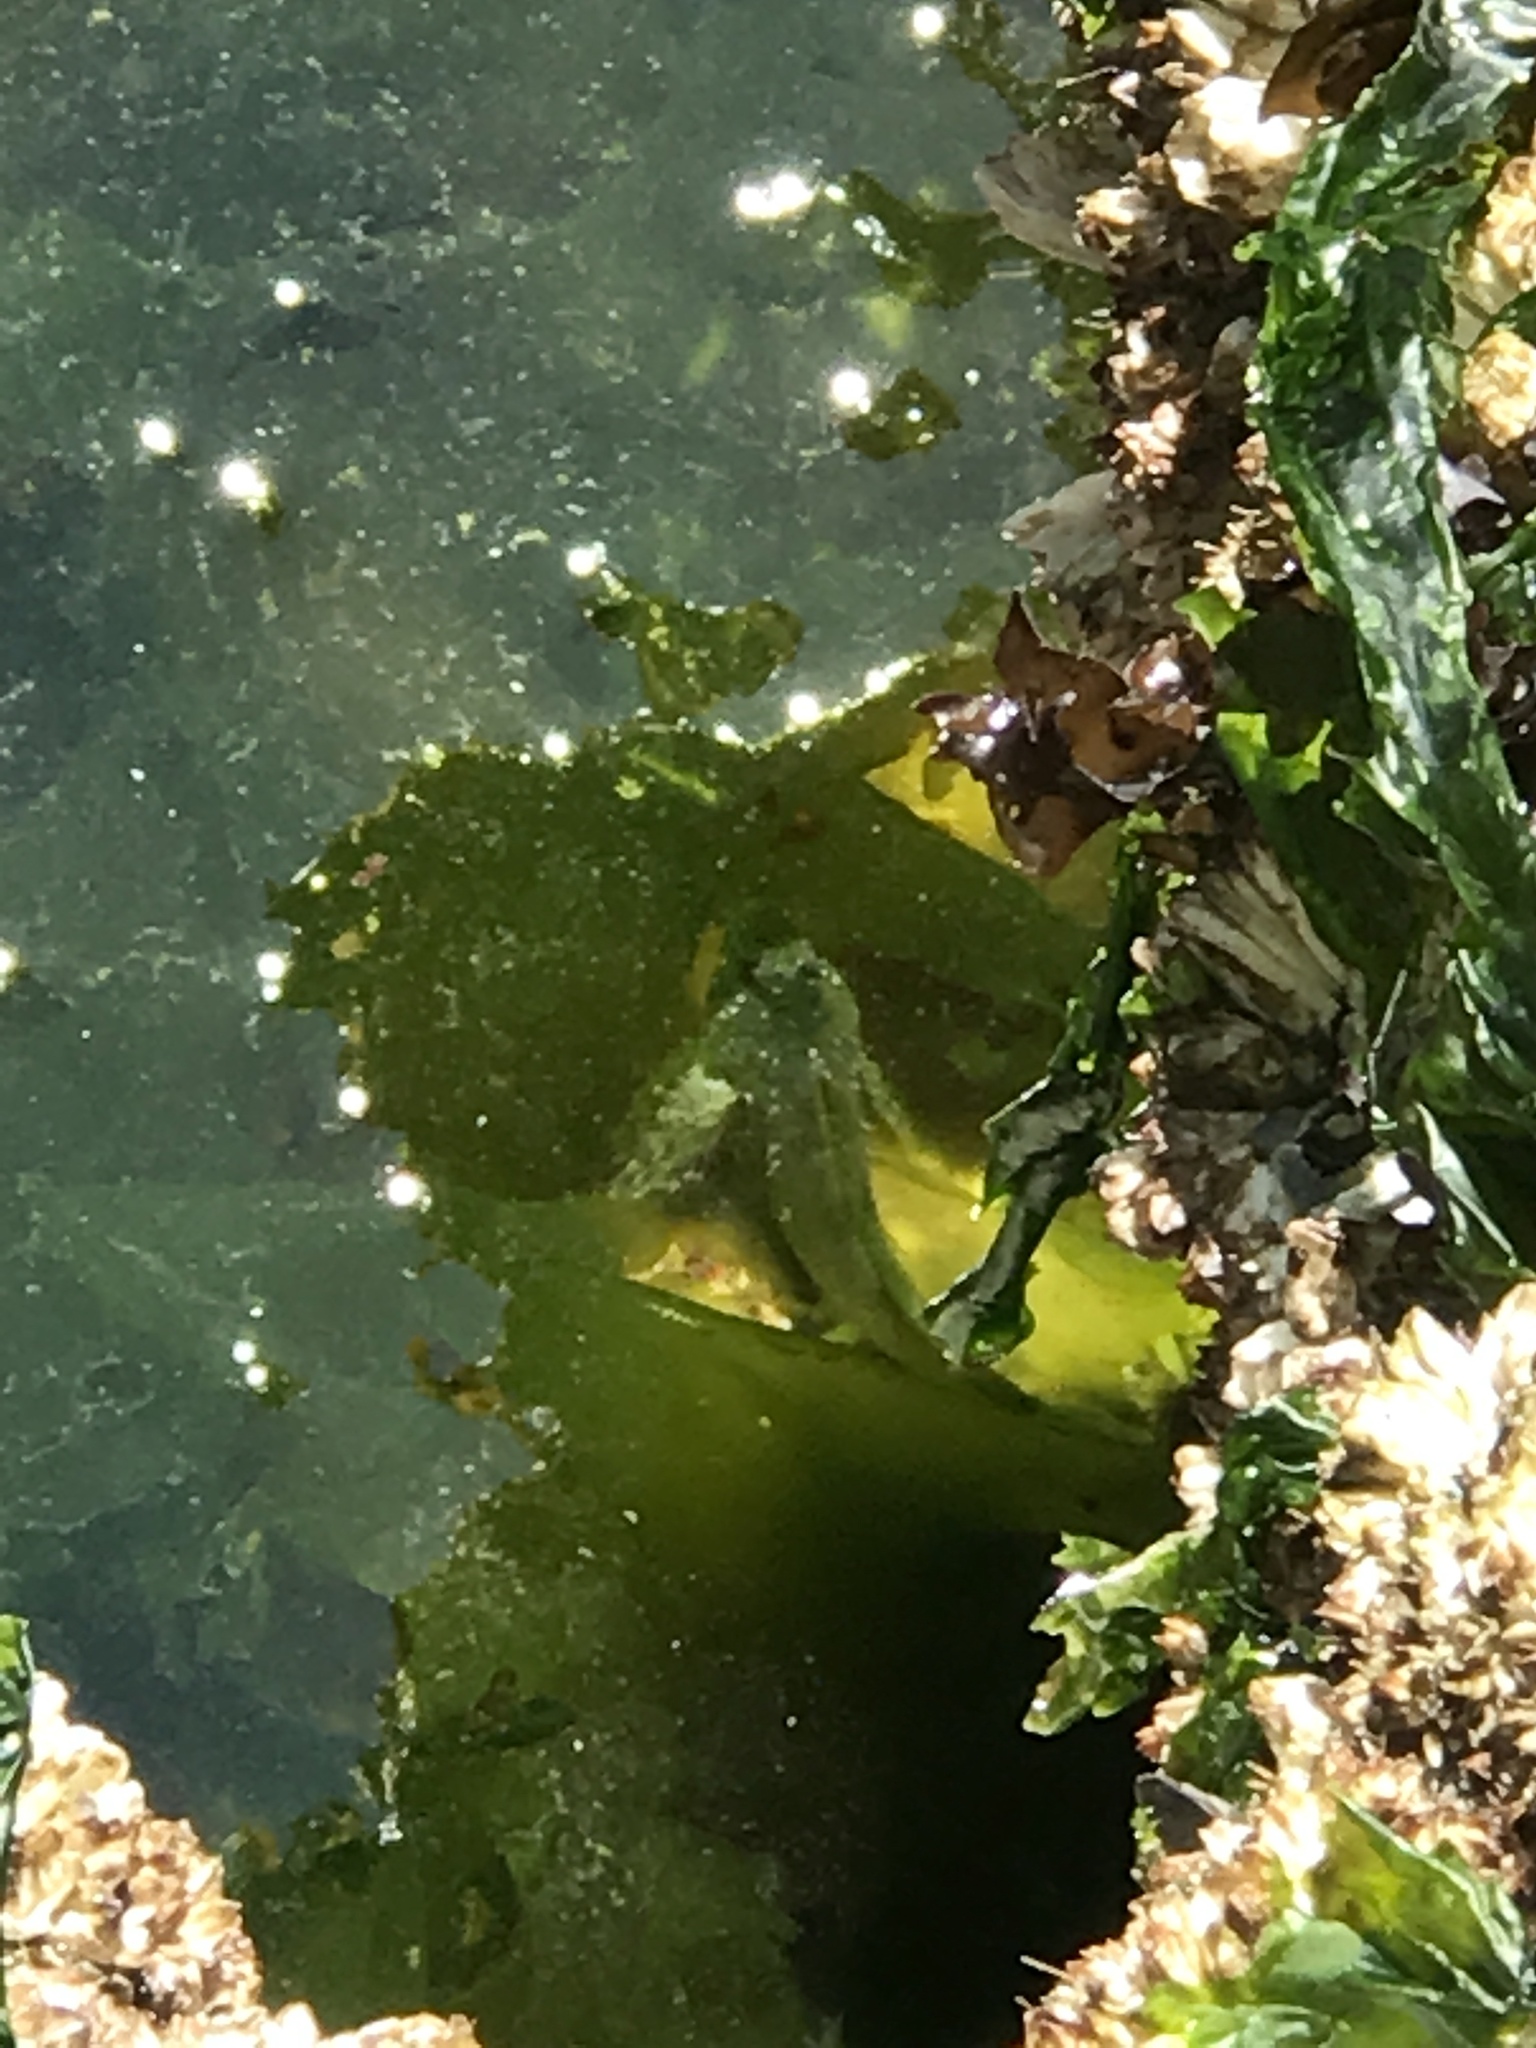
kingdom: Animalia
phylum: Chordata
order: Scorpaeniformes
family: Cottidae
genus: Oligocottus
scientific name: Oligocottus maculosus
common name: Tidepool sculpin
